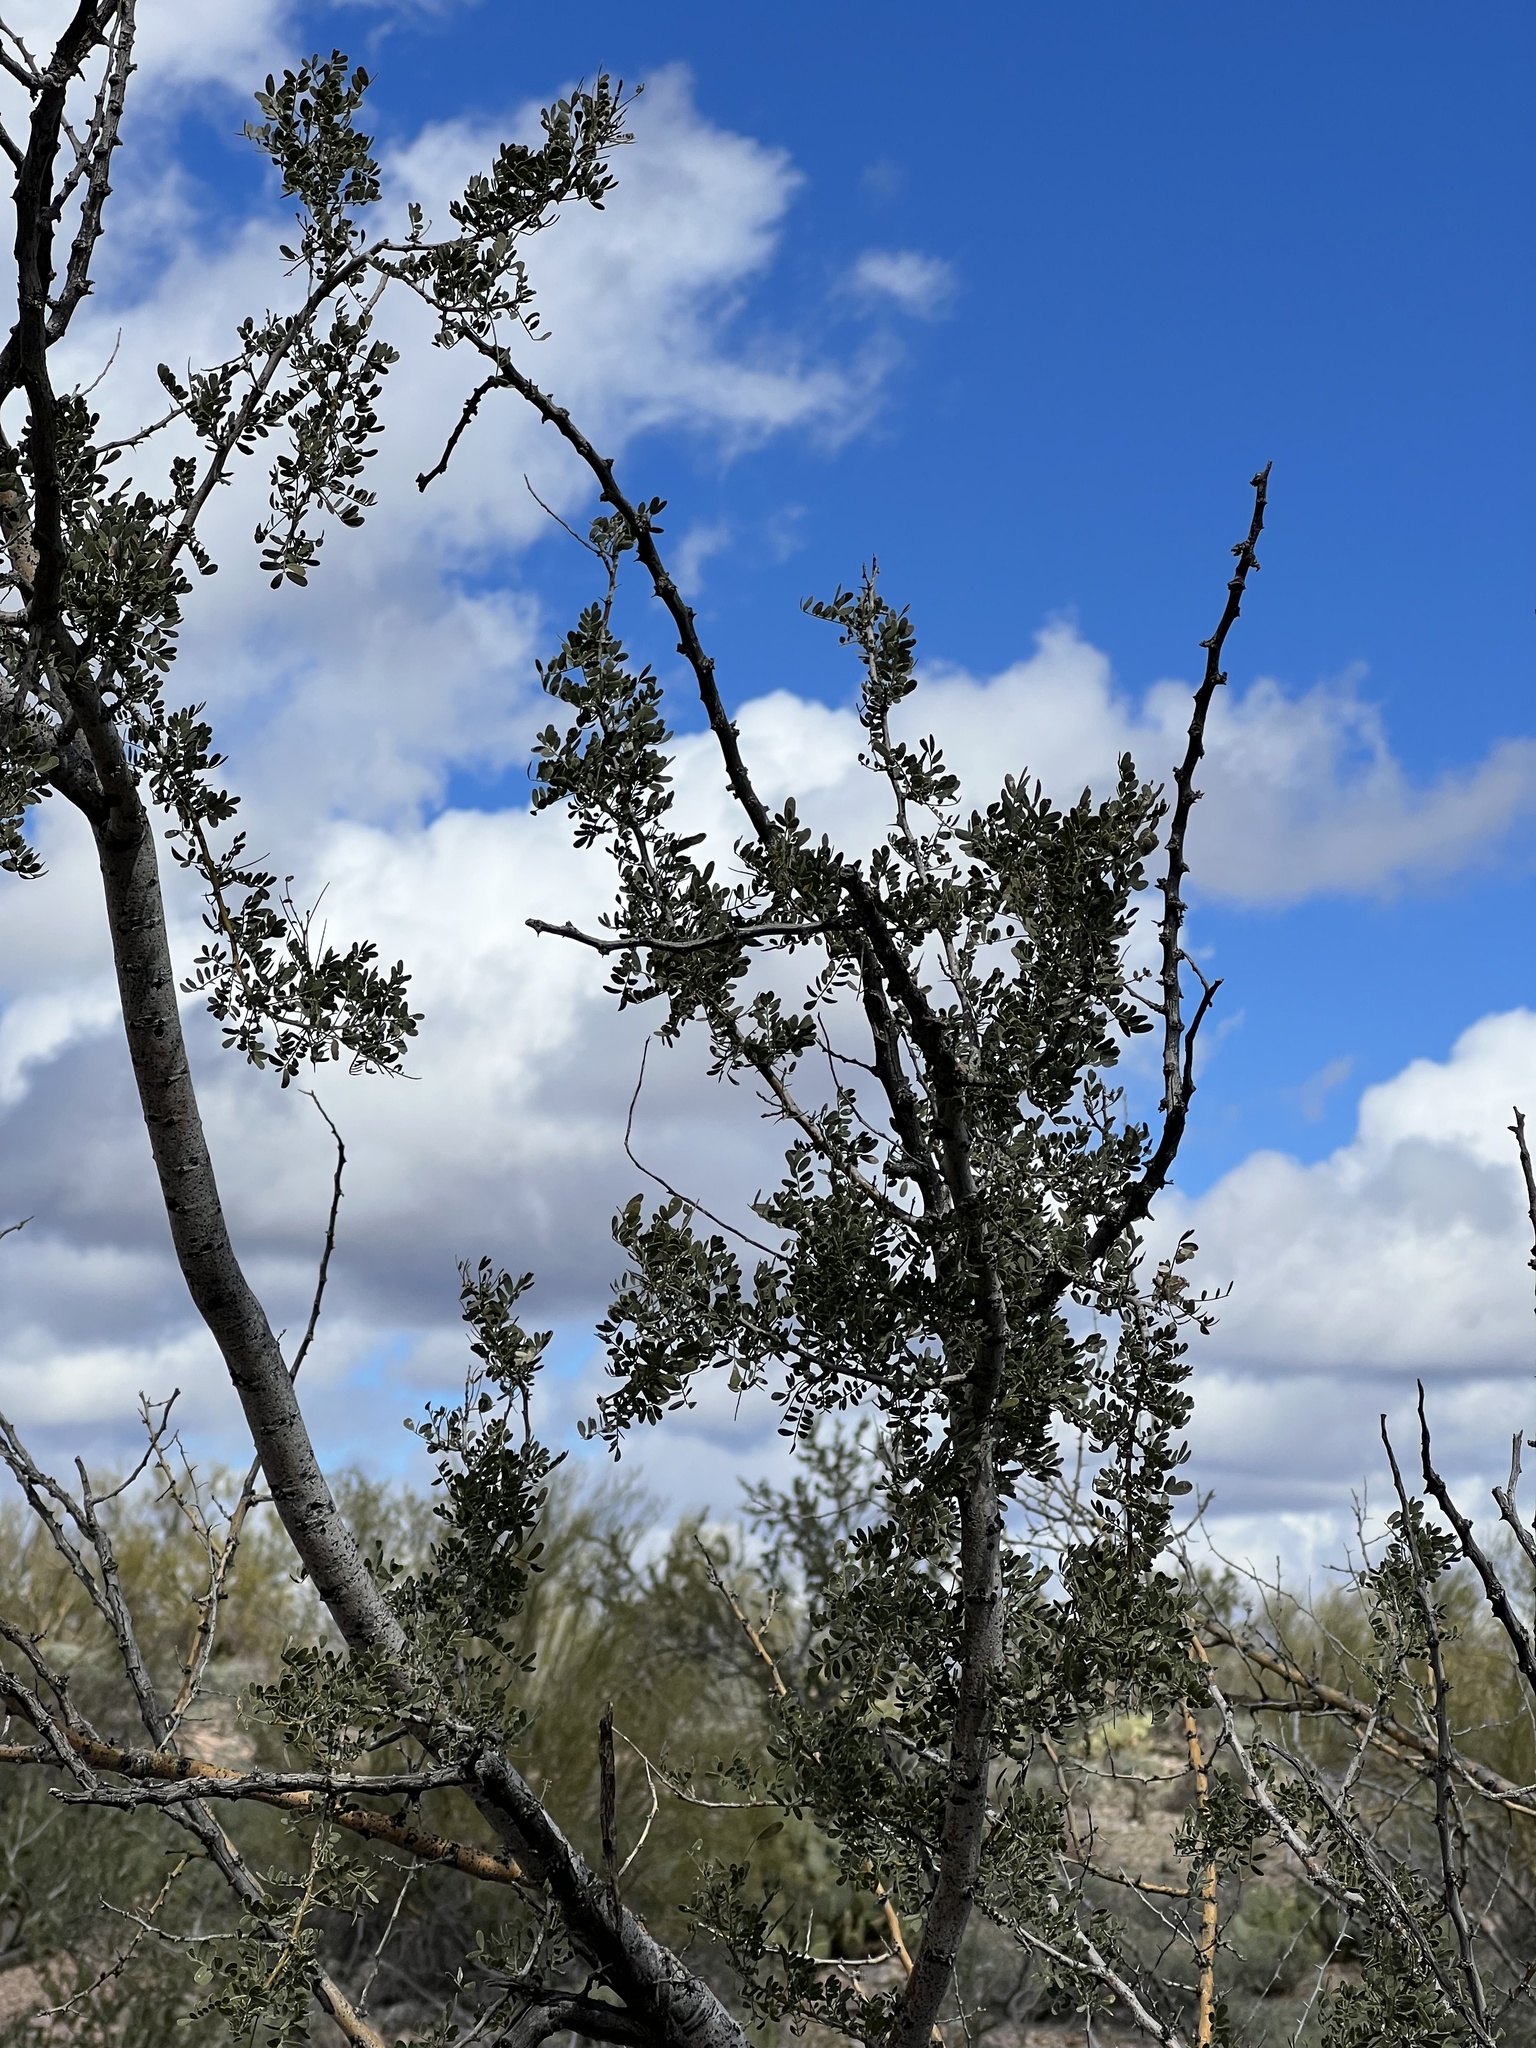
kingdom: Plantae
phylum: Tracheophyta
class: Magnoliopsida
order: Fabales
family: Fabaceae
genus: Olneya
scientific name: Olneya tesota
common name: Desert ironwood
